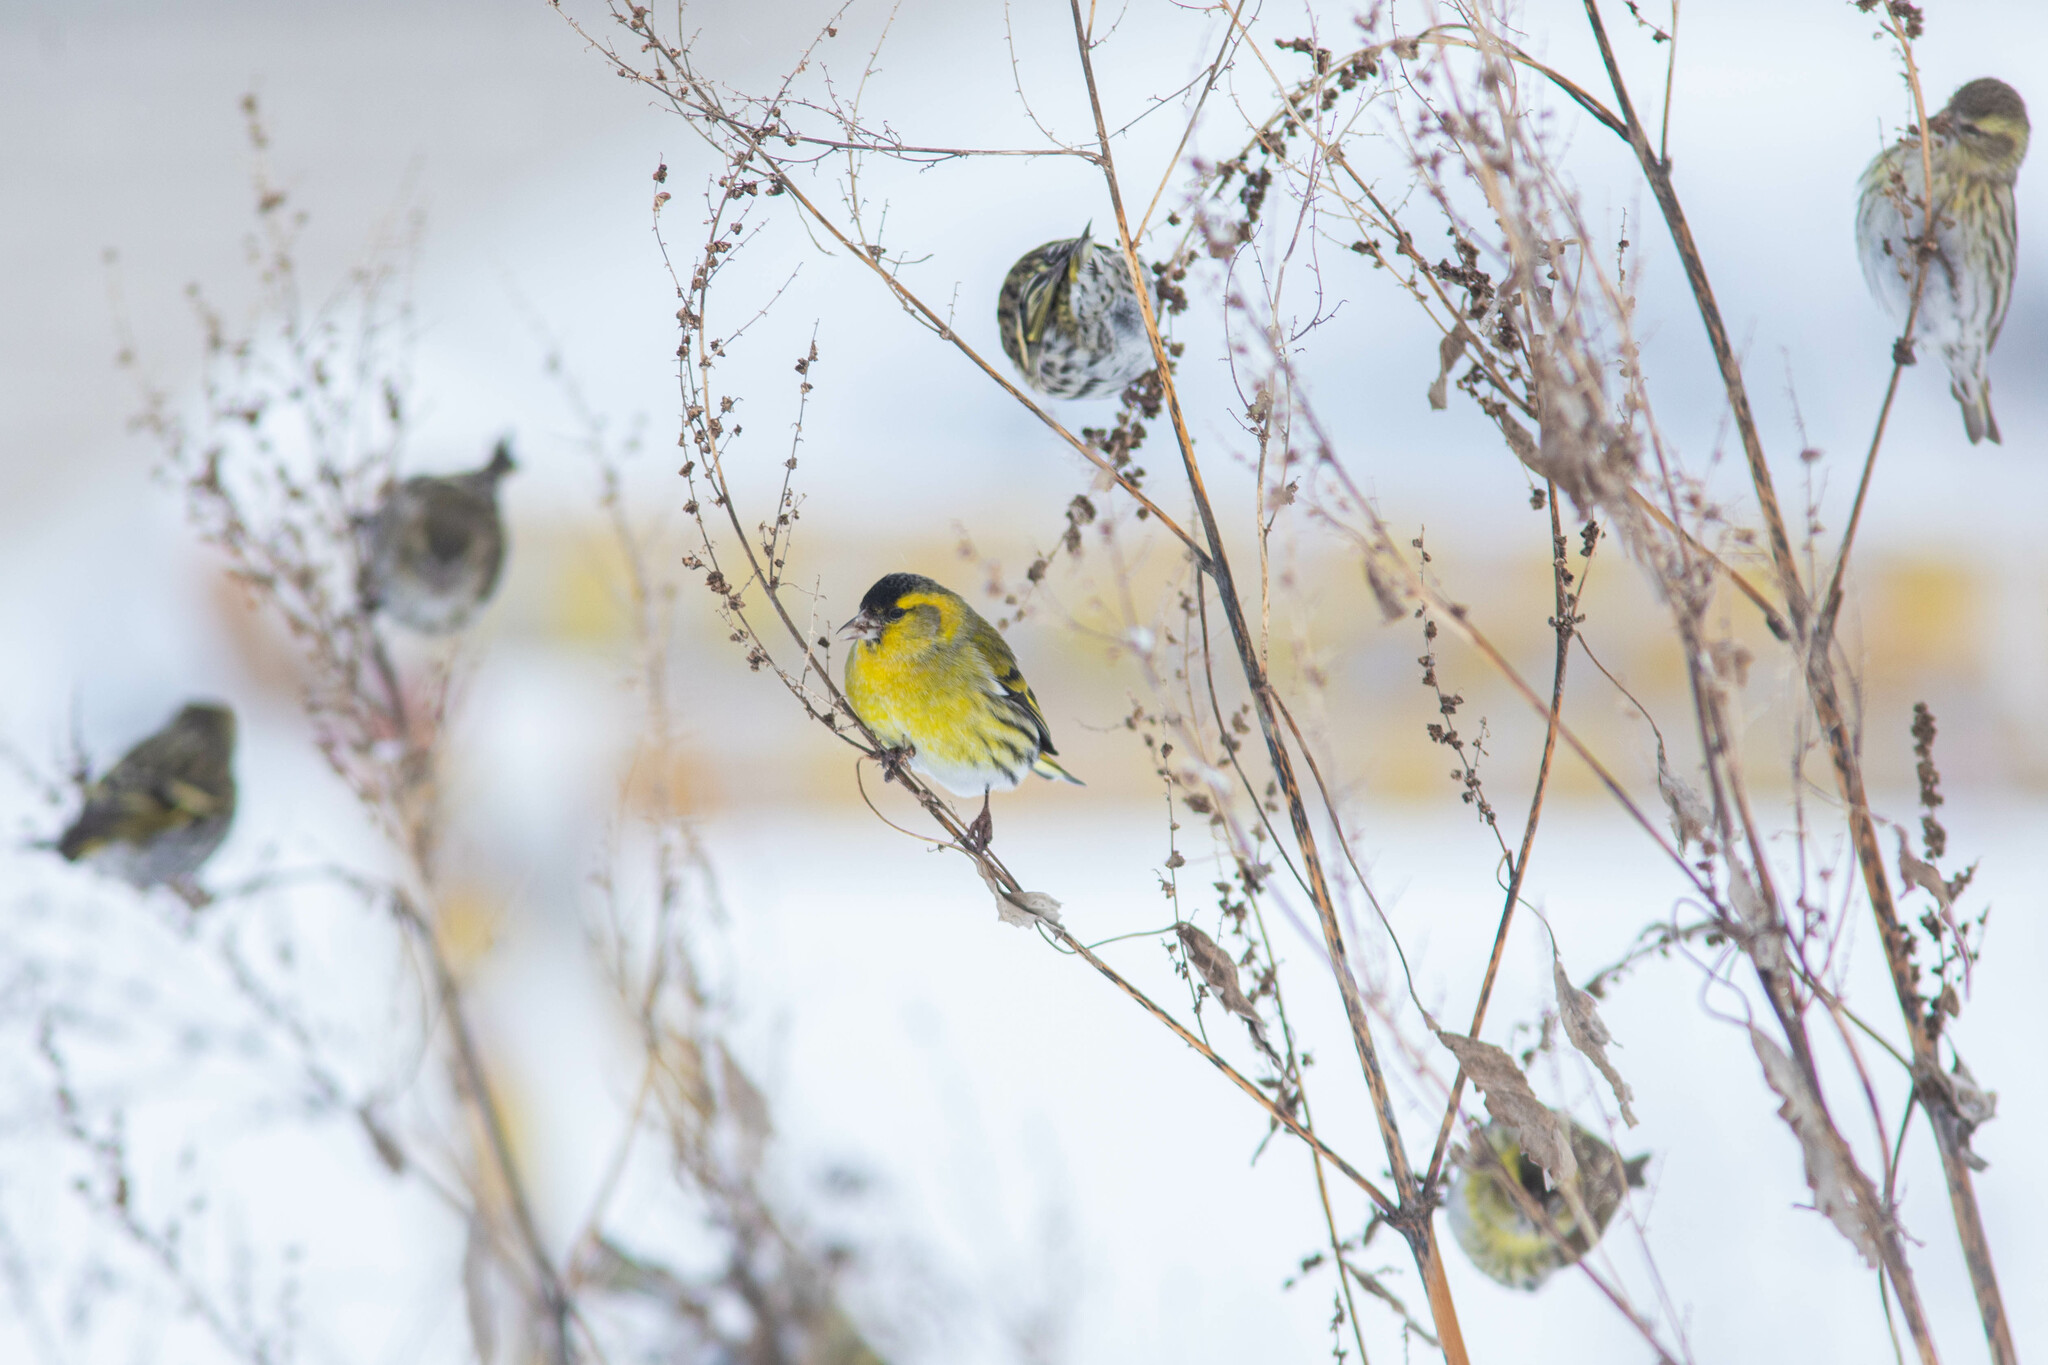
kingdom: Animalia
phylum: Chordata
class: Aves
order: Passeriformes
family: Fringillidae
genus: Spinus
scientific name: Spinus spinus
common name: Eurasian siskin
